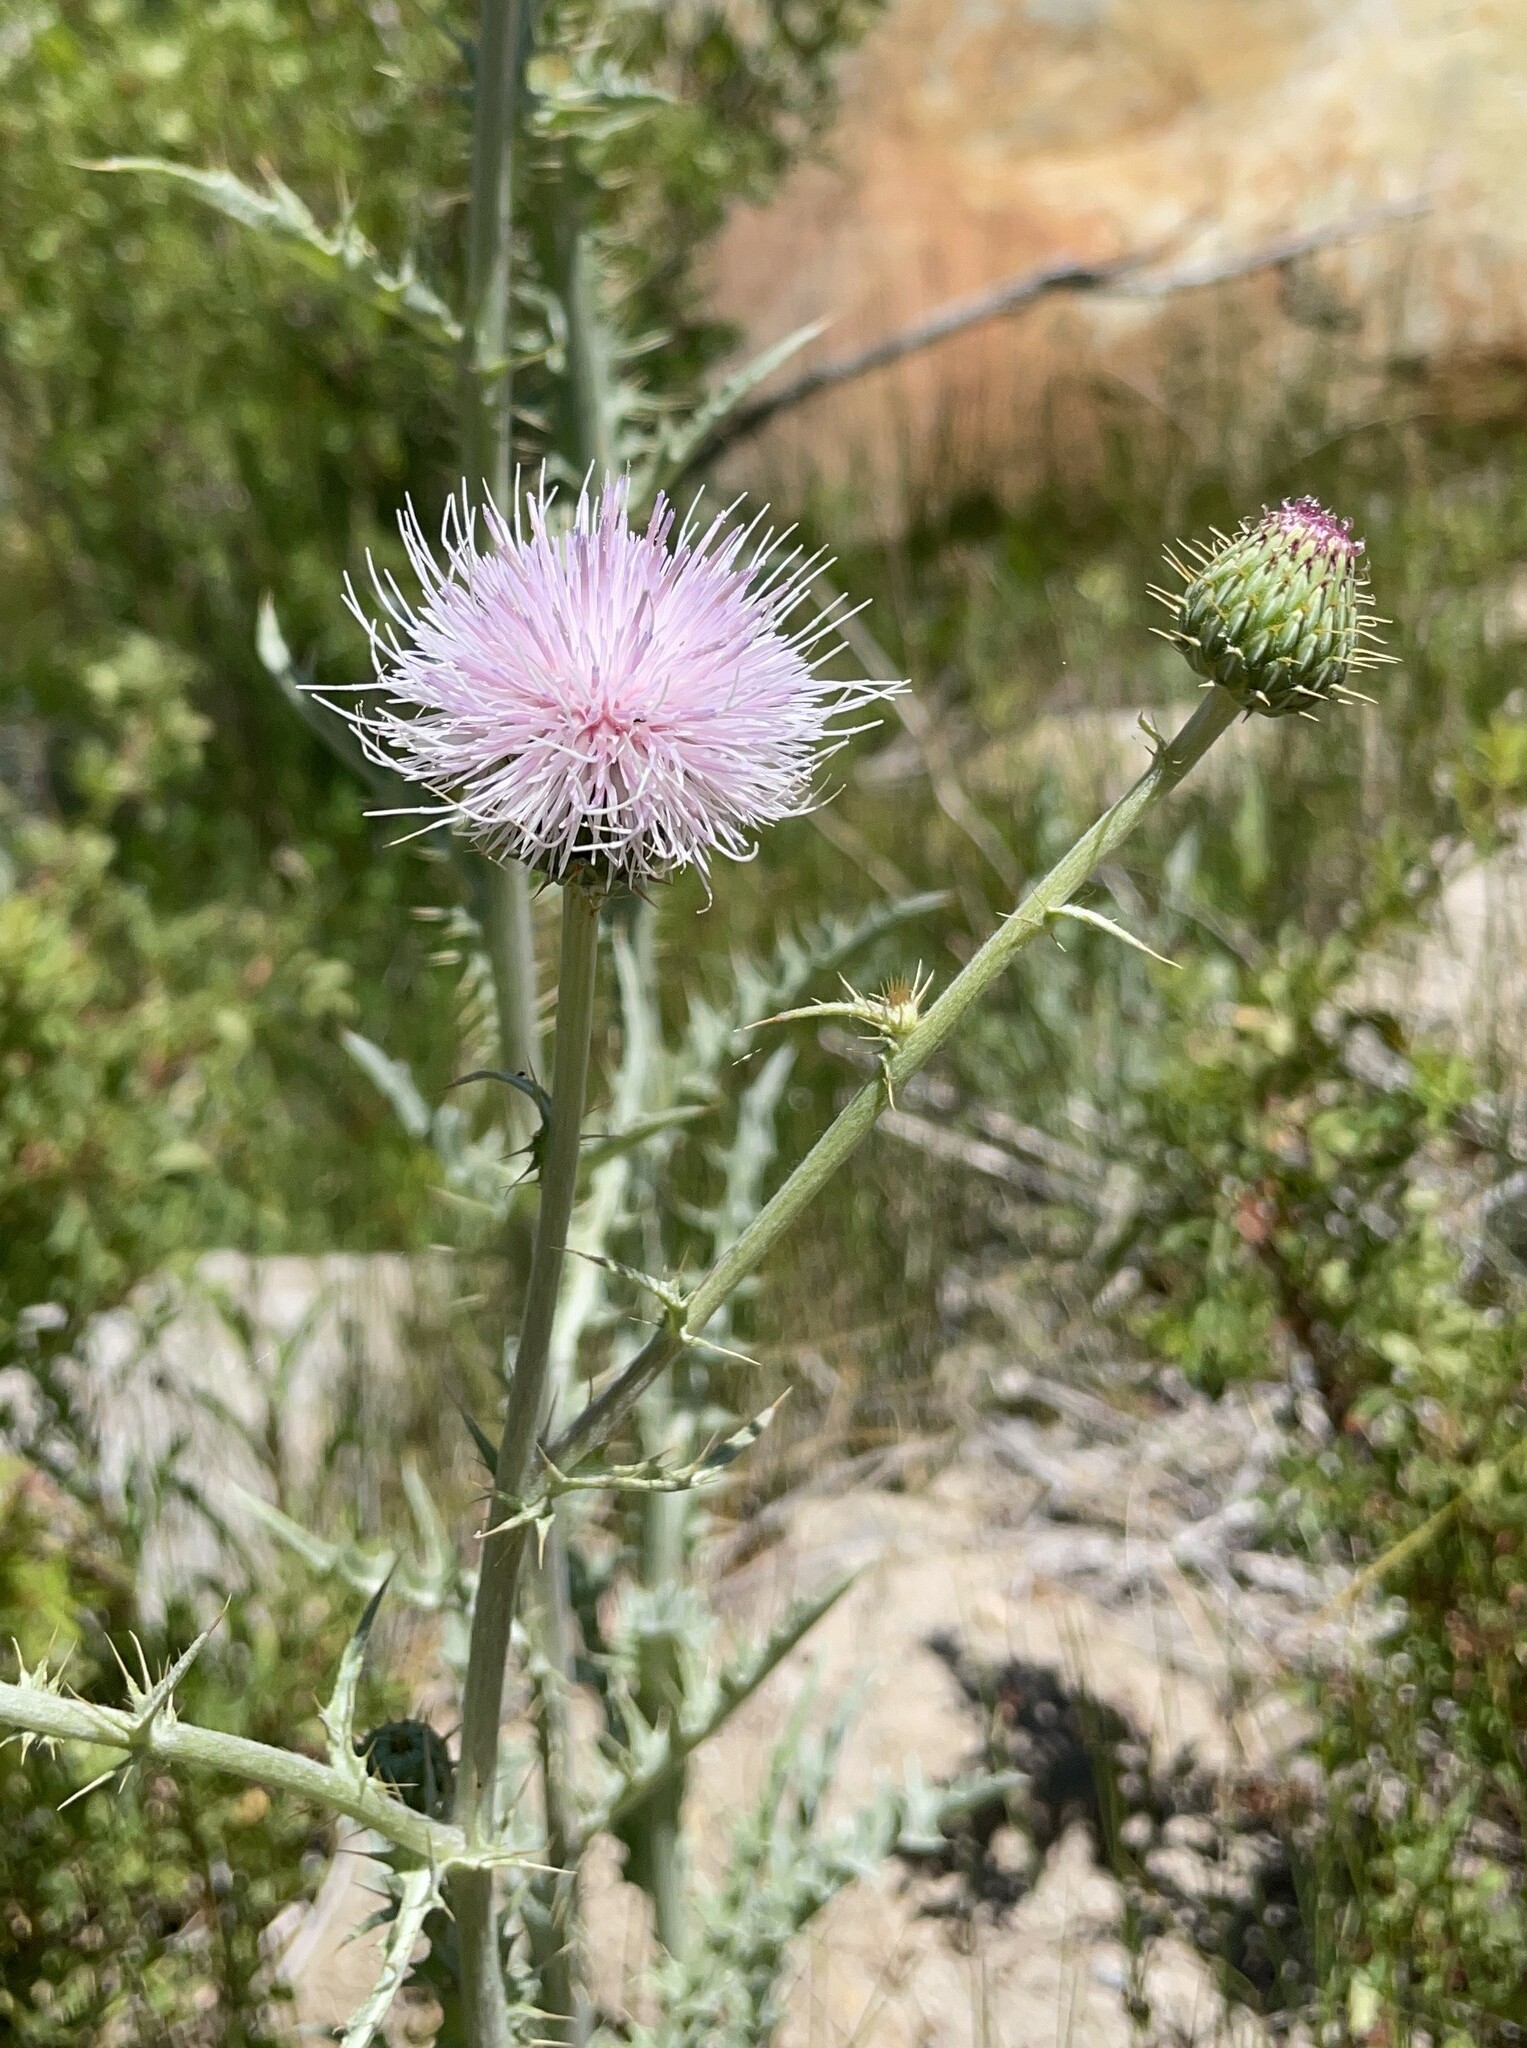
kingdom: Plantae
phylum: Tracheophyta
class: Magnoliopsida
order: Asterales
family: Asteraceae
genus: Cirsium
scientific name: Cirsium mohavense
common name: Mojave thistle
